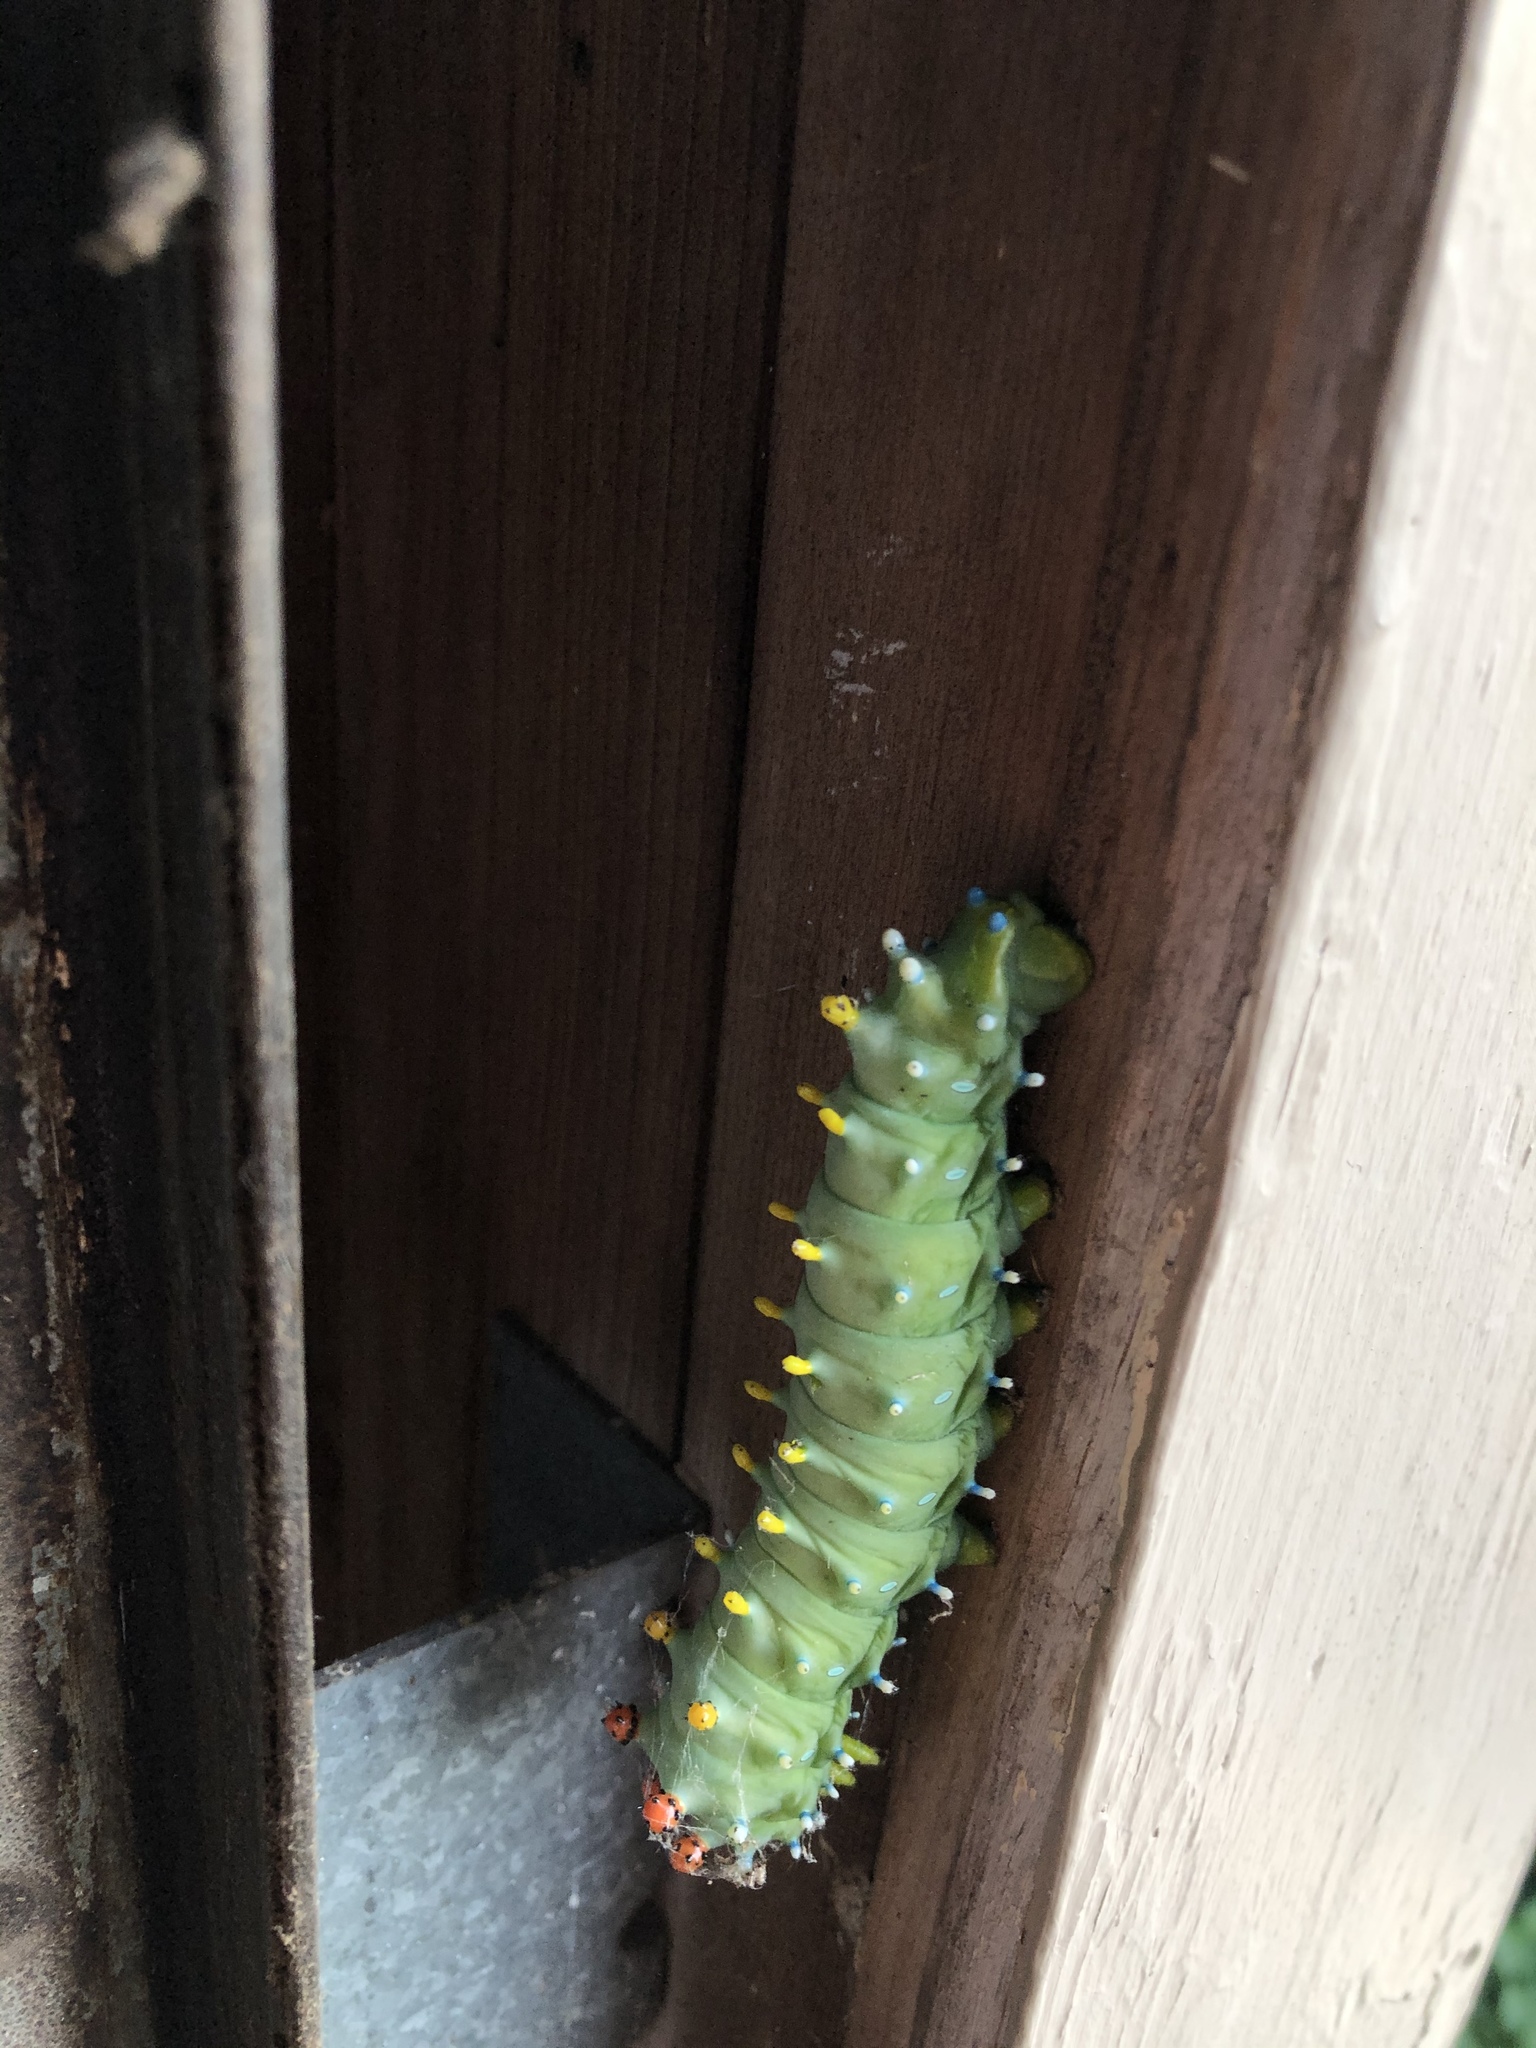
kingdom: Animalia
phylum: Arthropoda
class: Insecta
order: Lepidoptera
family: Saturniidae
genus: Hyalophora
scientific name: Hyalophora cecropia
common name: Cecropia silkmoth
